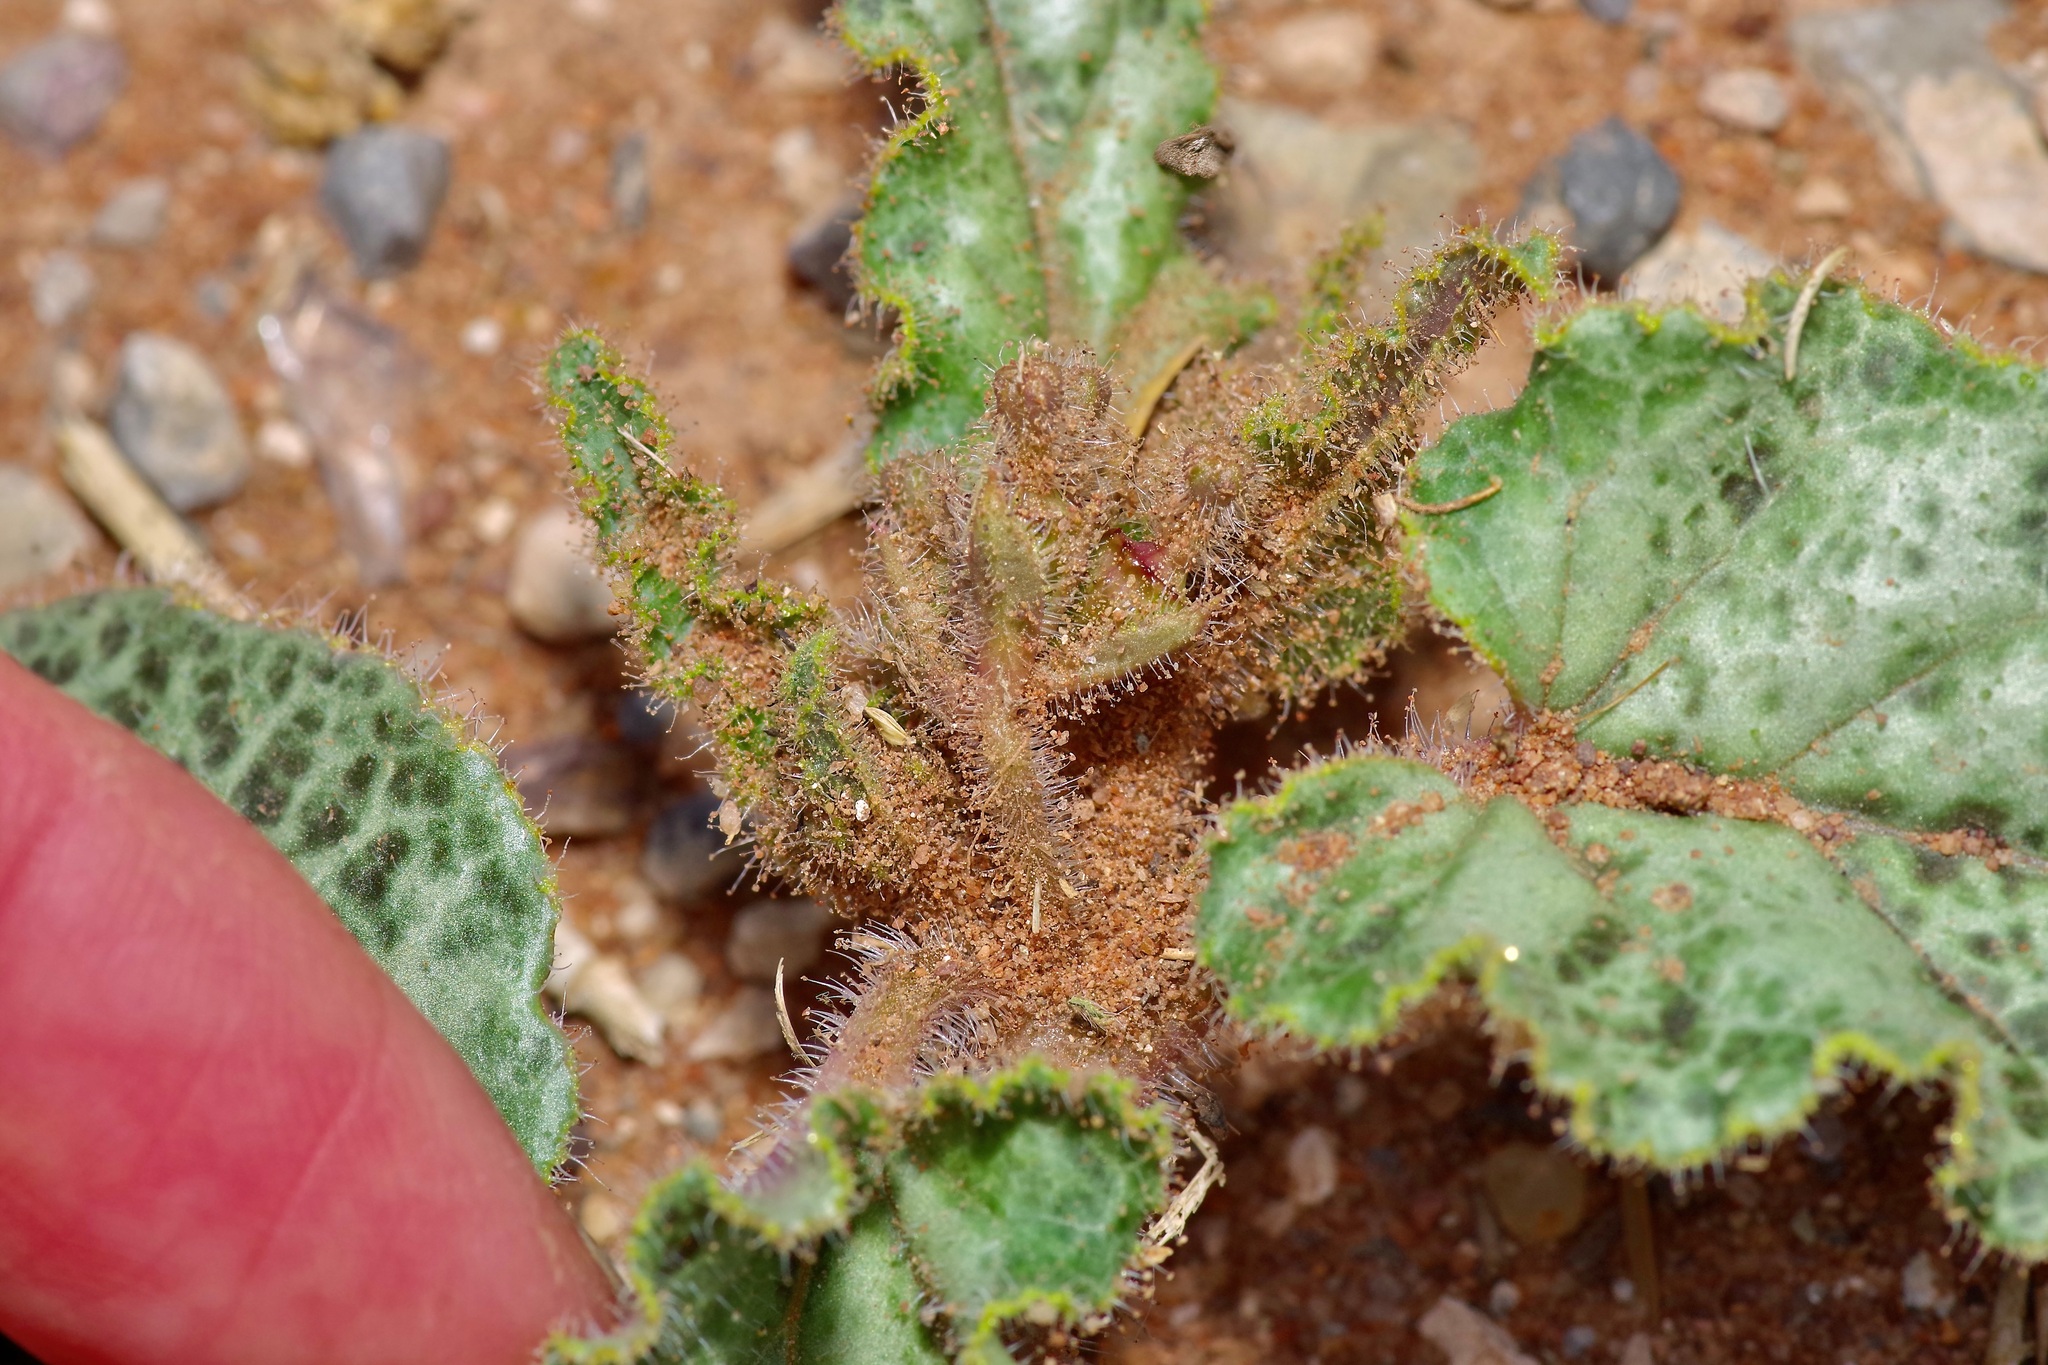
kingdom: Plantae
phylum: Tracheophyta
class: Magnoliopsida
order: Caryophyllales
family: Nyctaginaceae
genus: Nyctaginia
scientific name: Nyctaginia capitata
